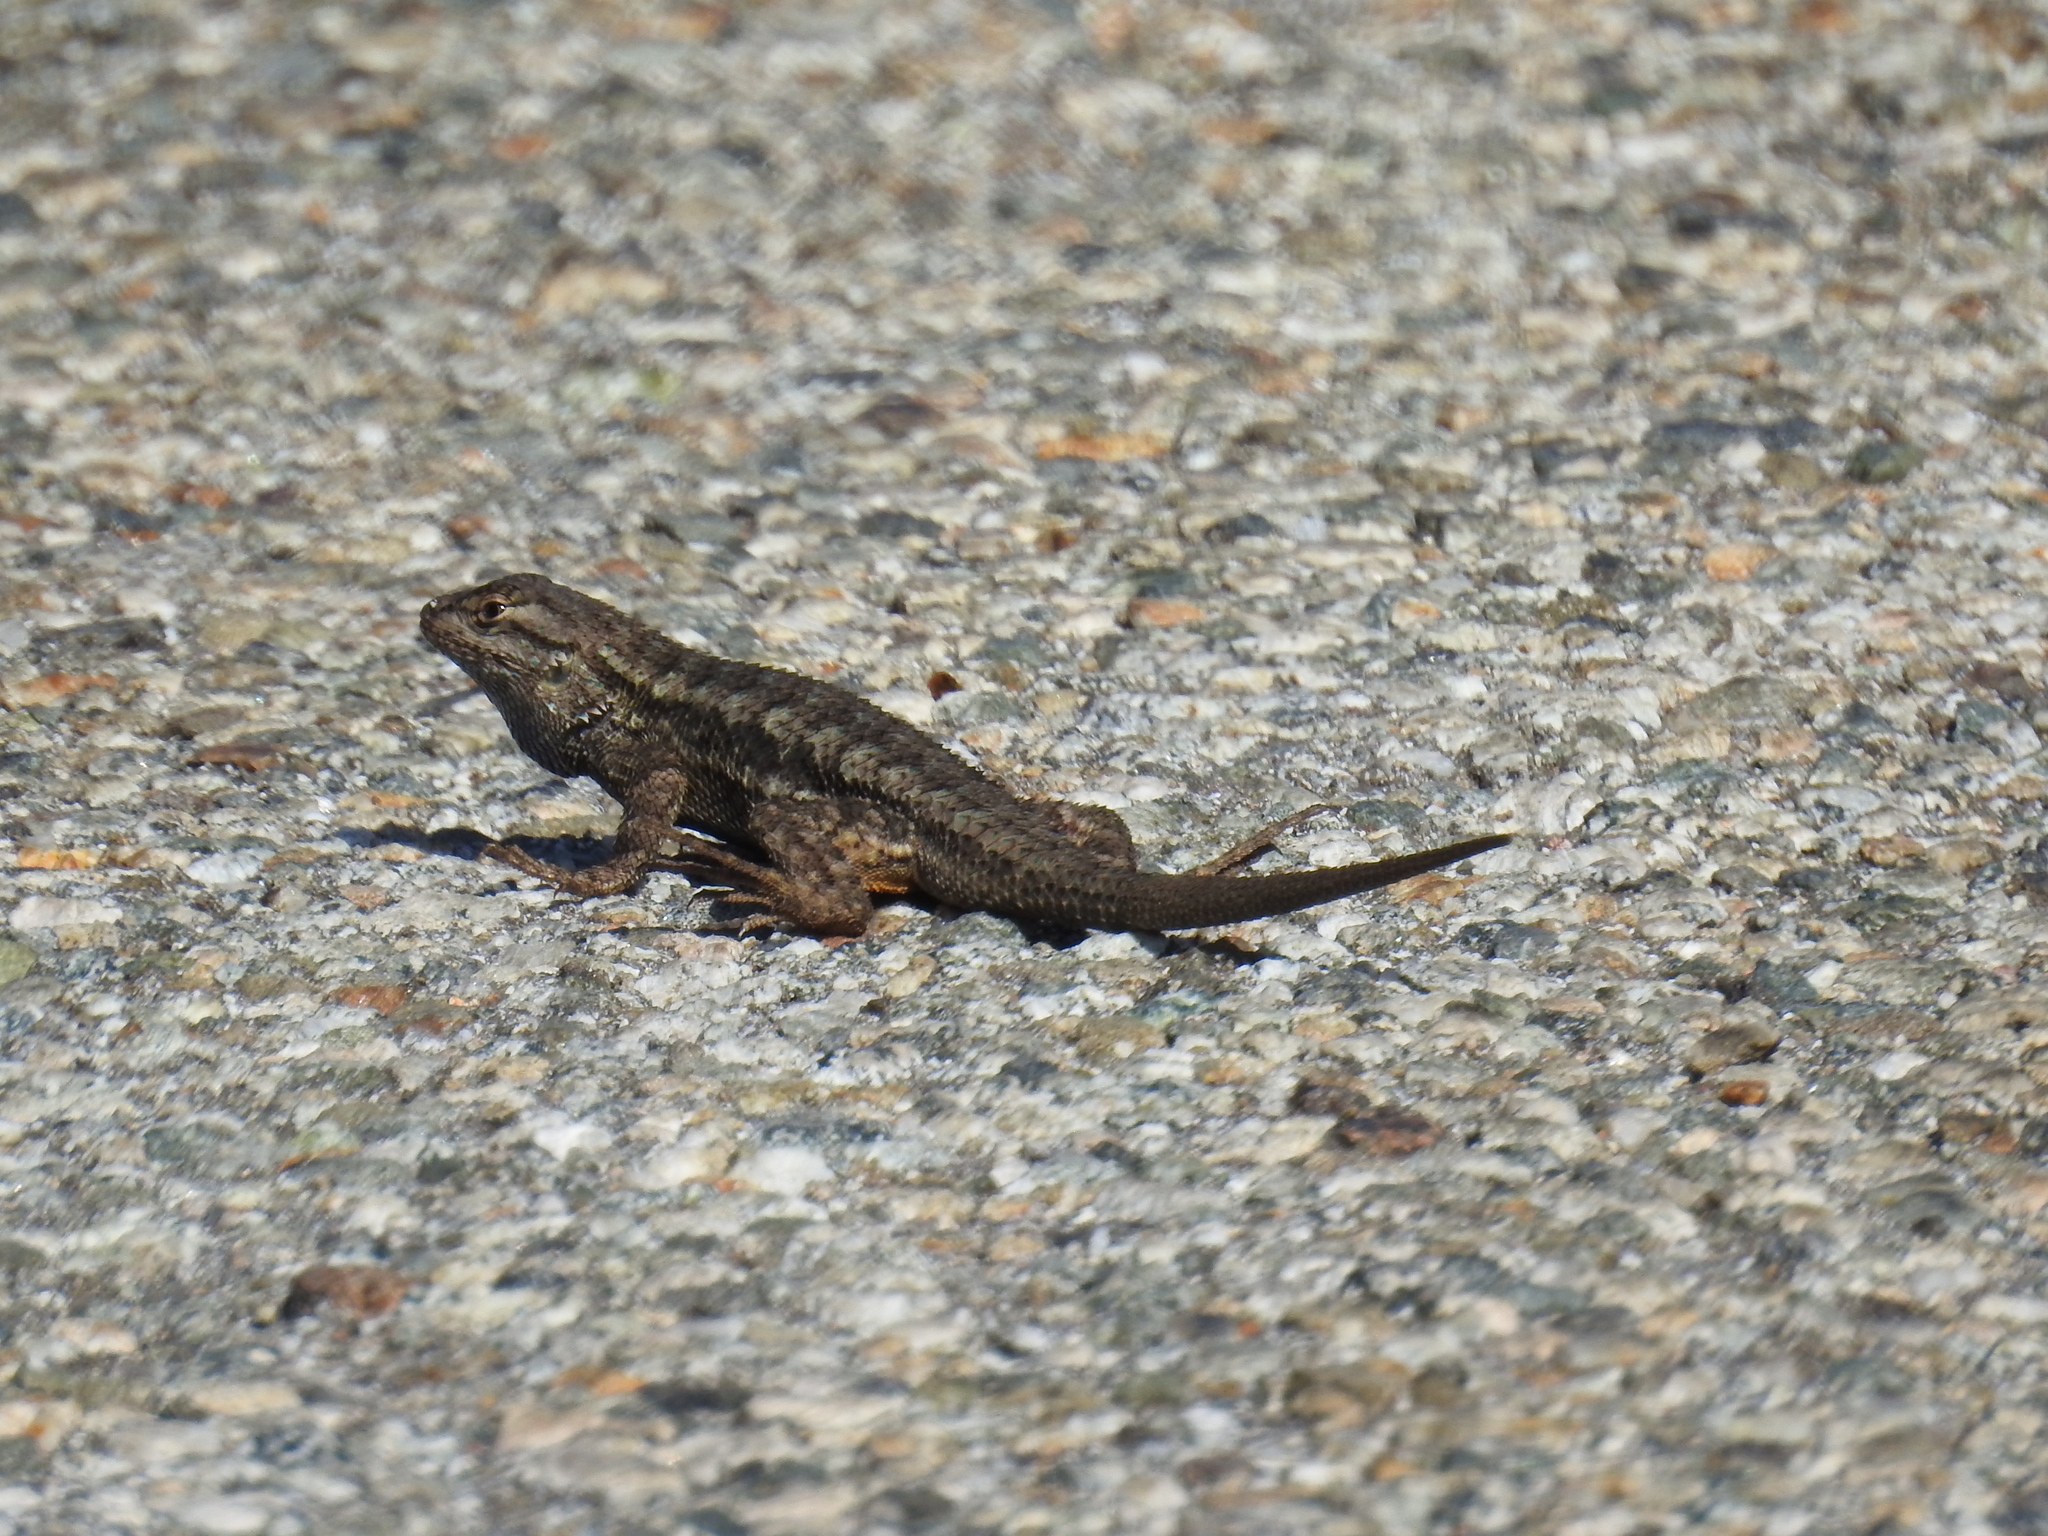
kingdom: Animalia
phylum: Chordata
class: Squamata
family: Phrynosomatidae
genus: Sceloporus
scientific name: Sceloporus occidentalis
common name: Western fence lizard
